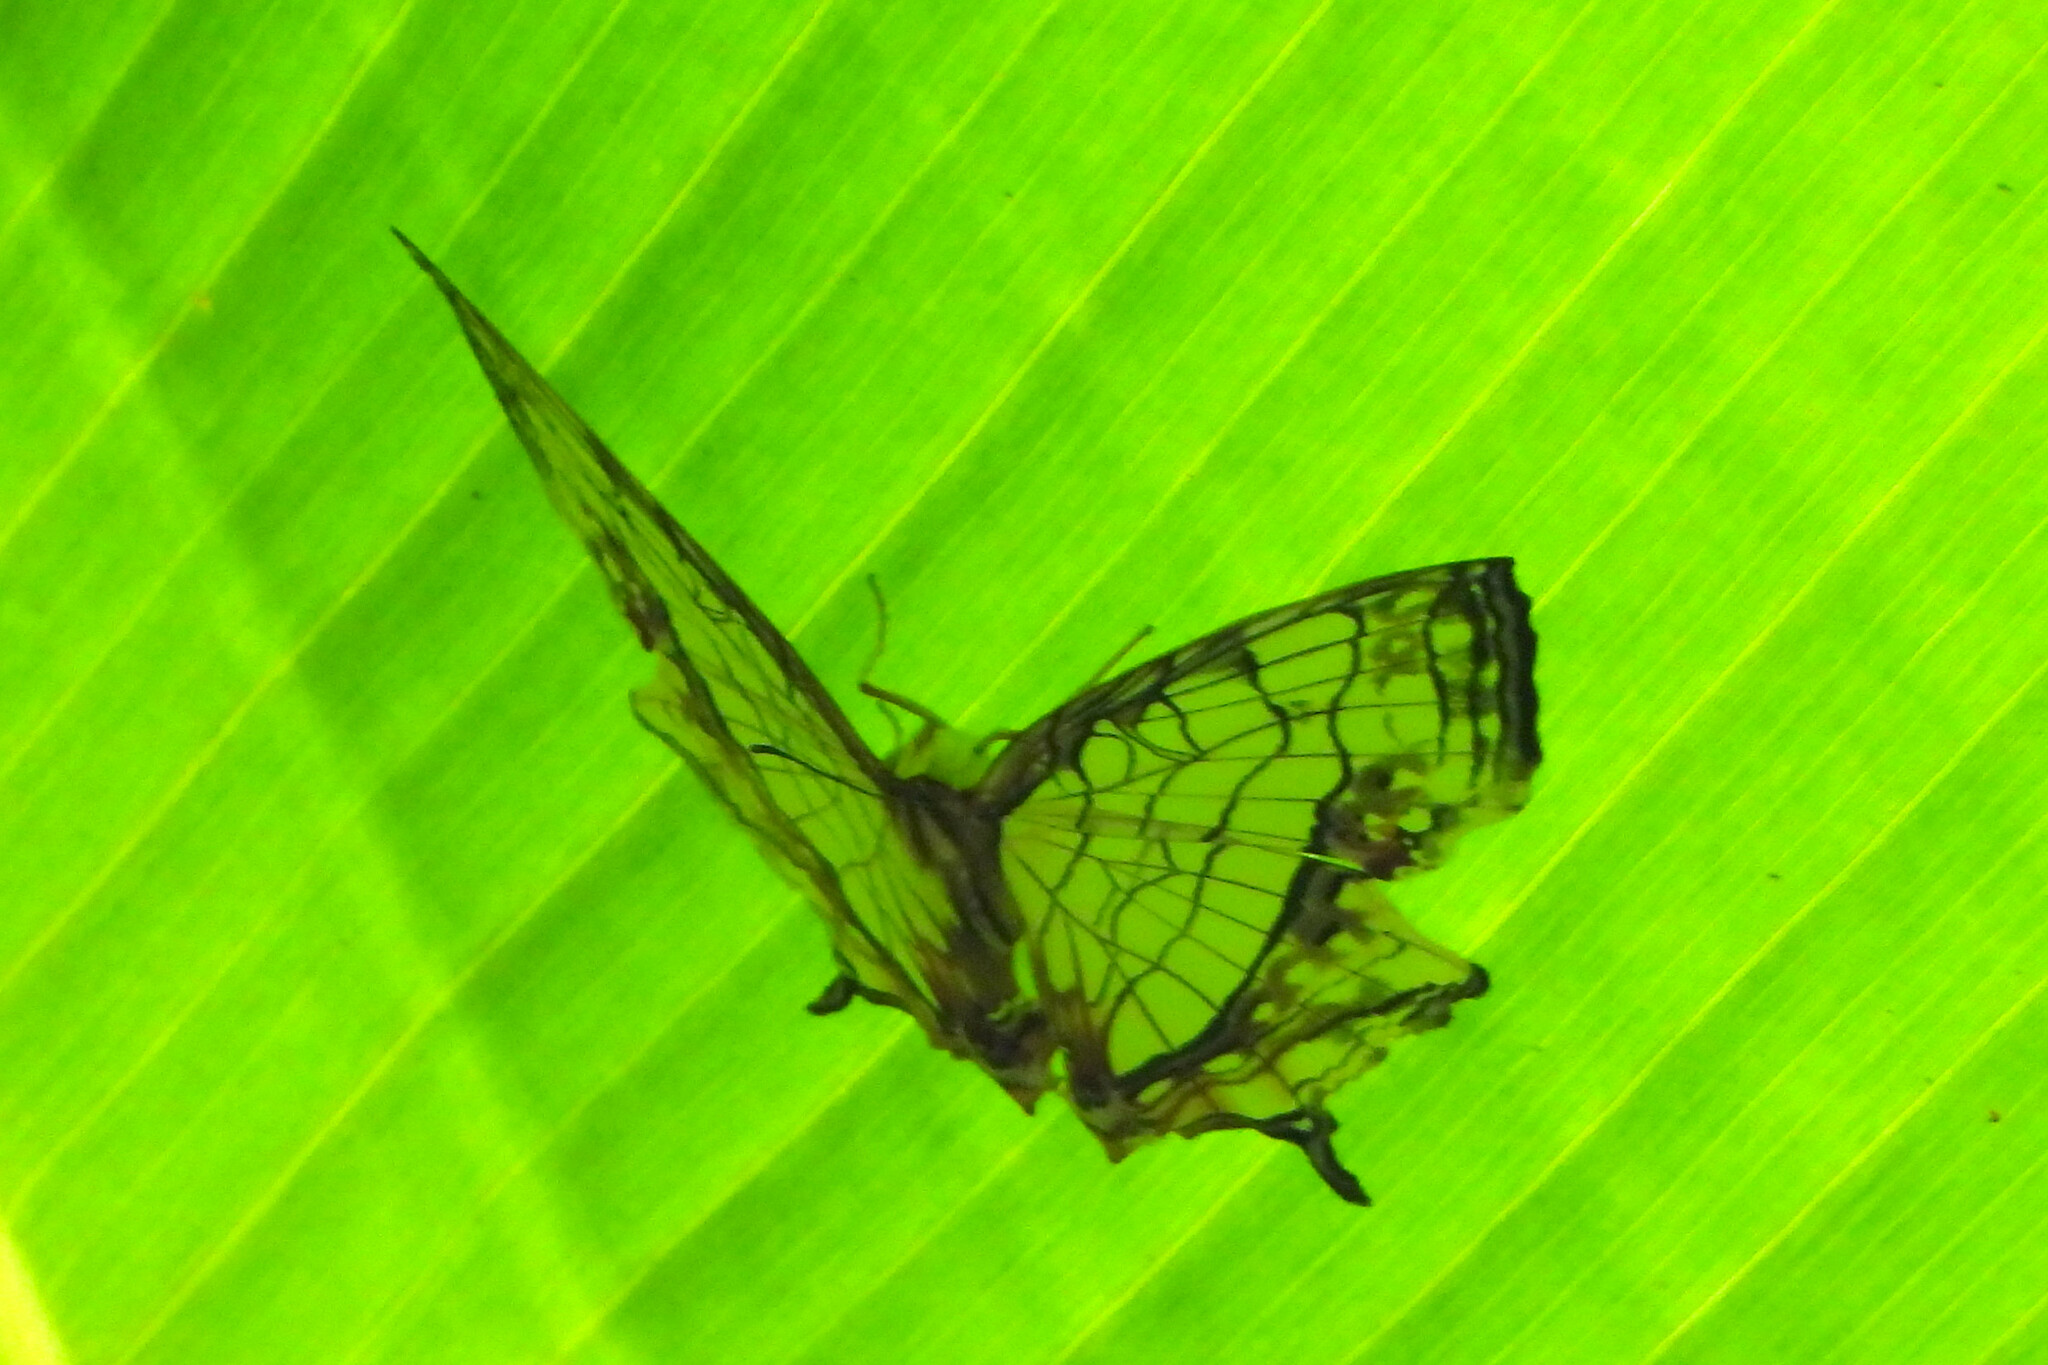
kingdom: Animalia
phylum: Arthropoda
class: Insecta
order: Lepidoptera
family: Nymphalidae
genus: Cyrestis
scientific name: Cyrestis thyodamas
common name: Common mapwing
